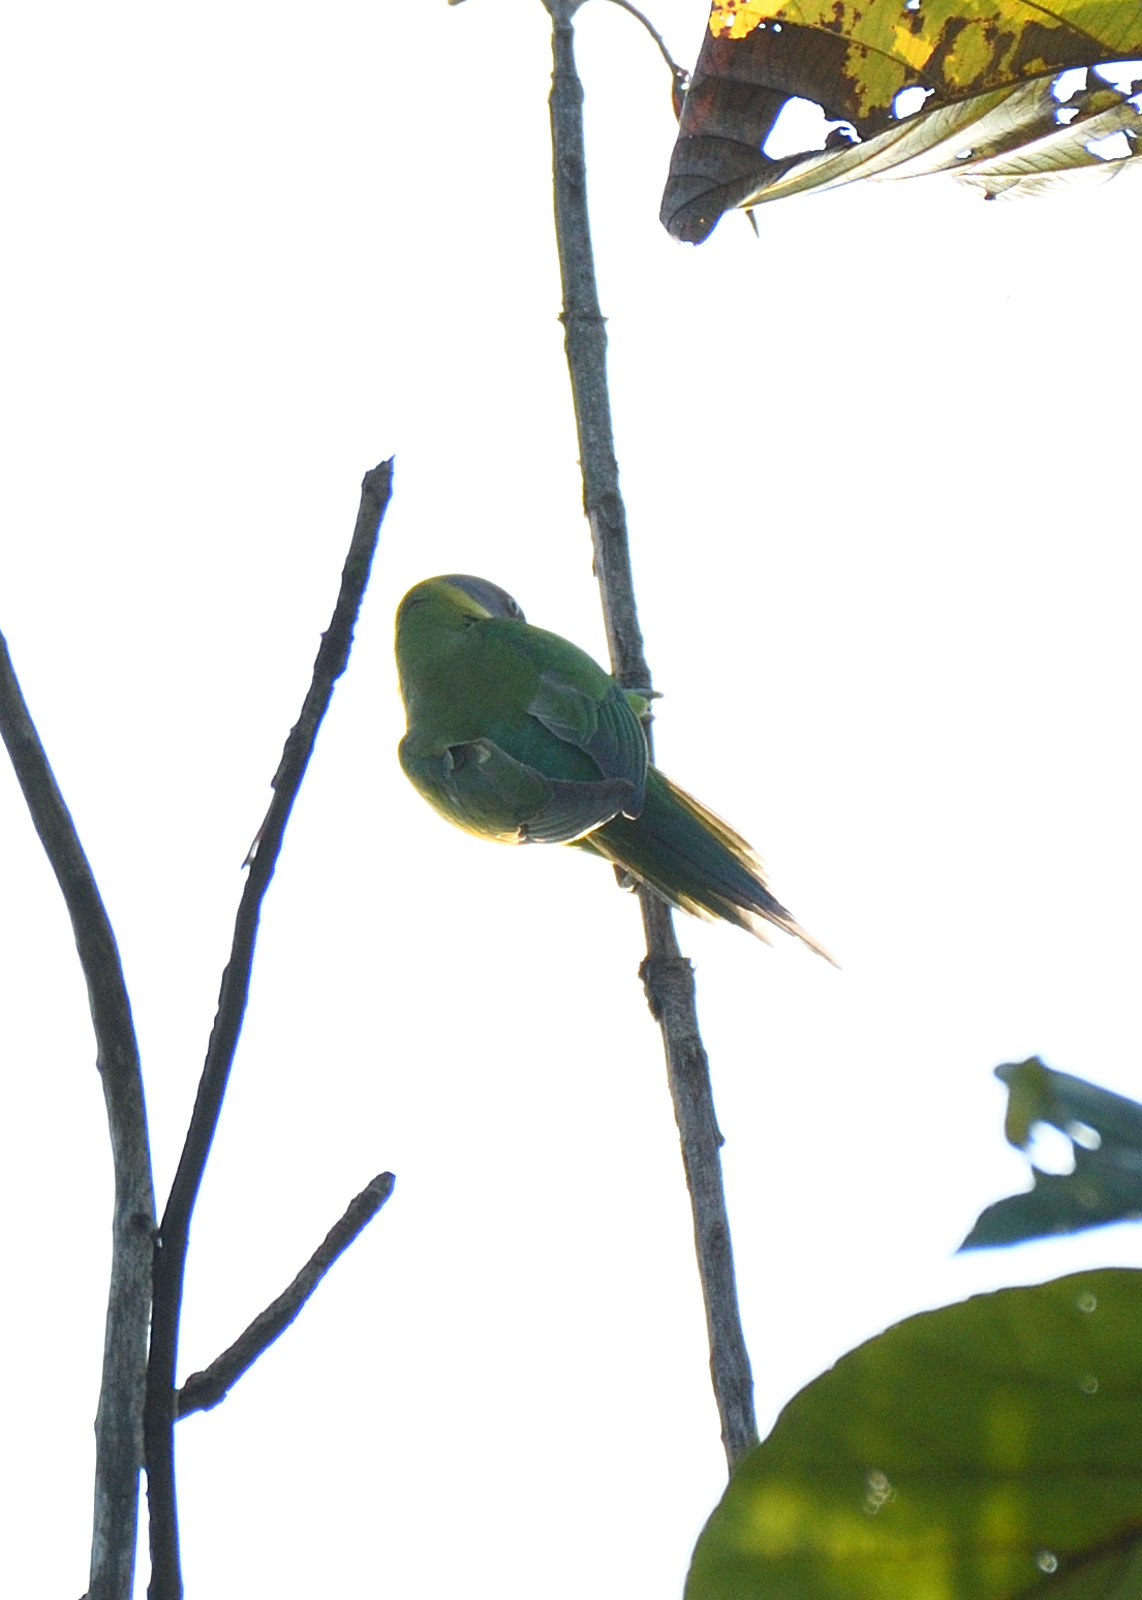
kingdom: Animalia
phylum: Chordata
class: Aves
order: Psittaciformes
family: Psittacidae
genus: Psittacula
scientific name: Psittacula cyanocephala
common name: Plum-headed parakeet
